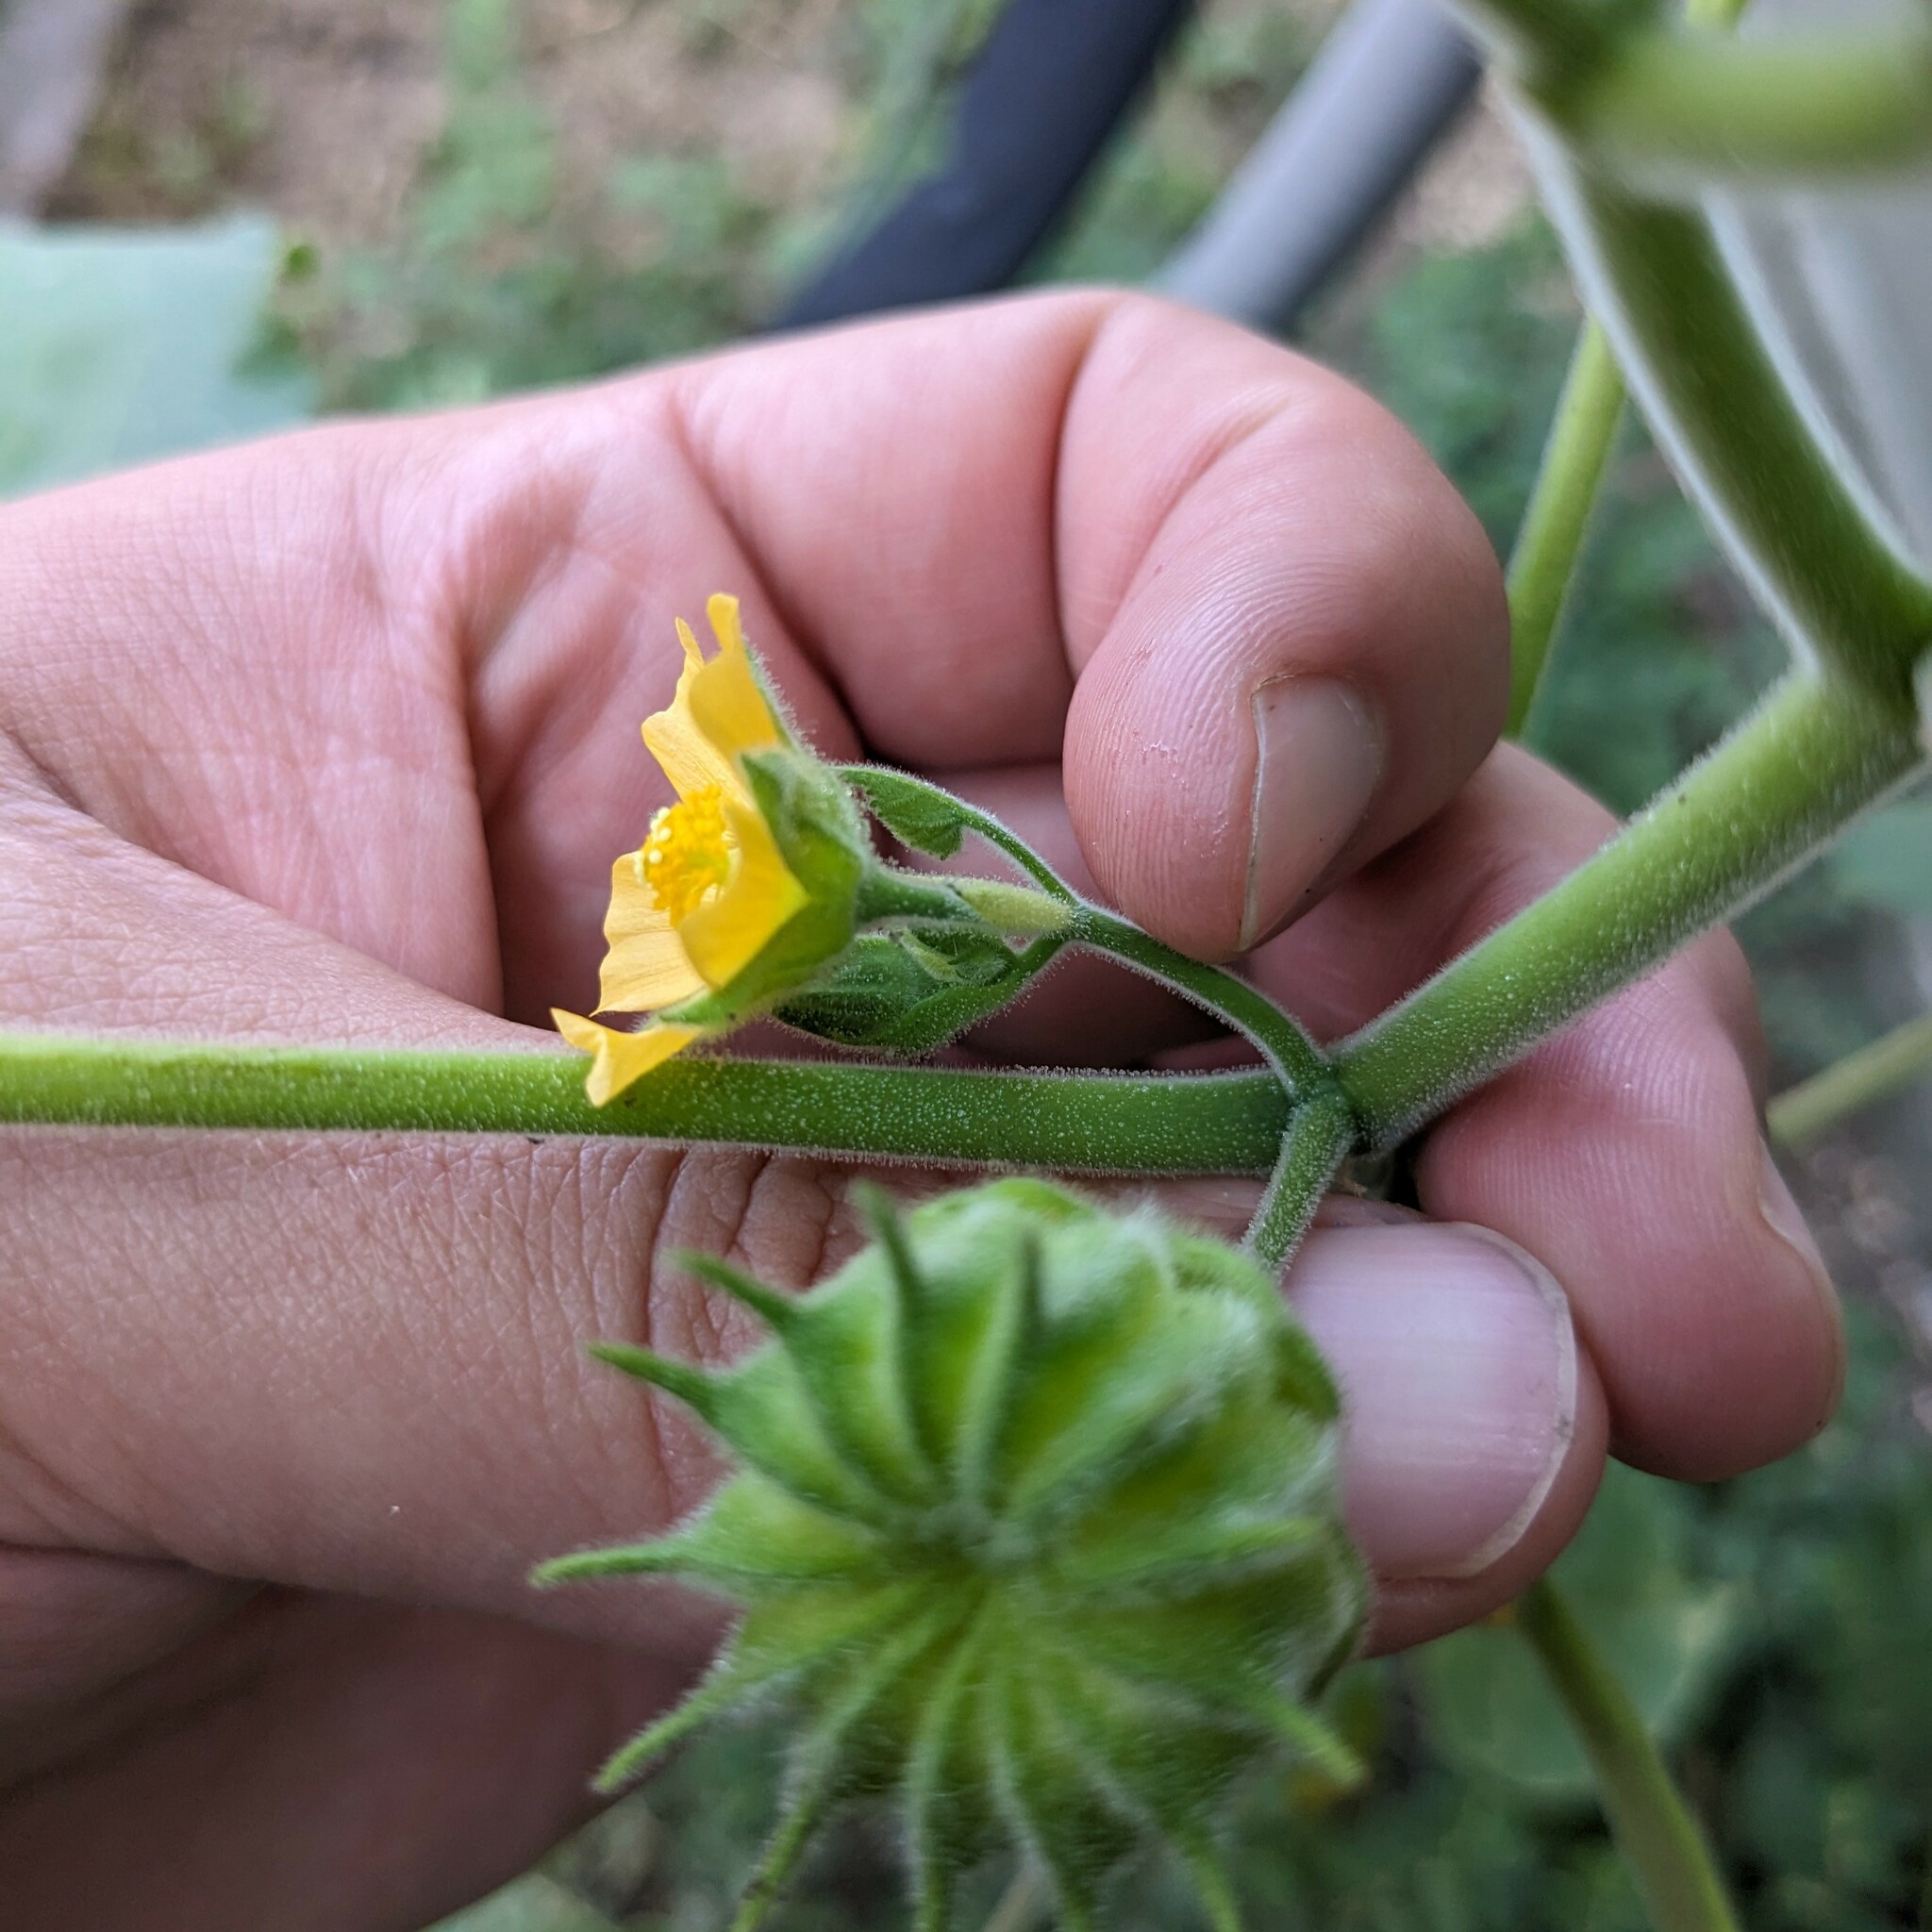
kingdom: Plantae
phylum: Tracheophyta
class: Magnoliopsida
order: Malvales
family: Malvaceae
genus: Abutilon
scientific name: Abutilon theophrasti
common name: Velvetleaf
